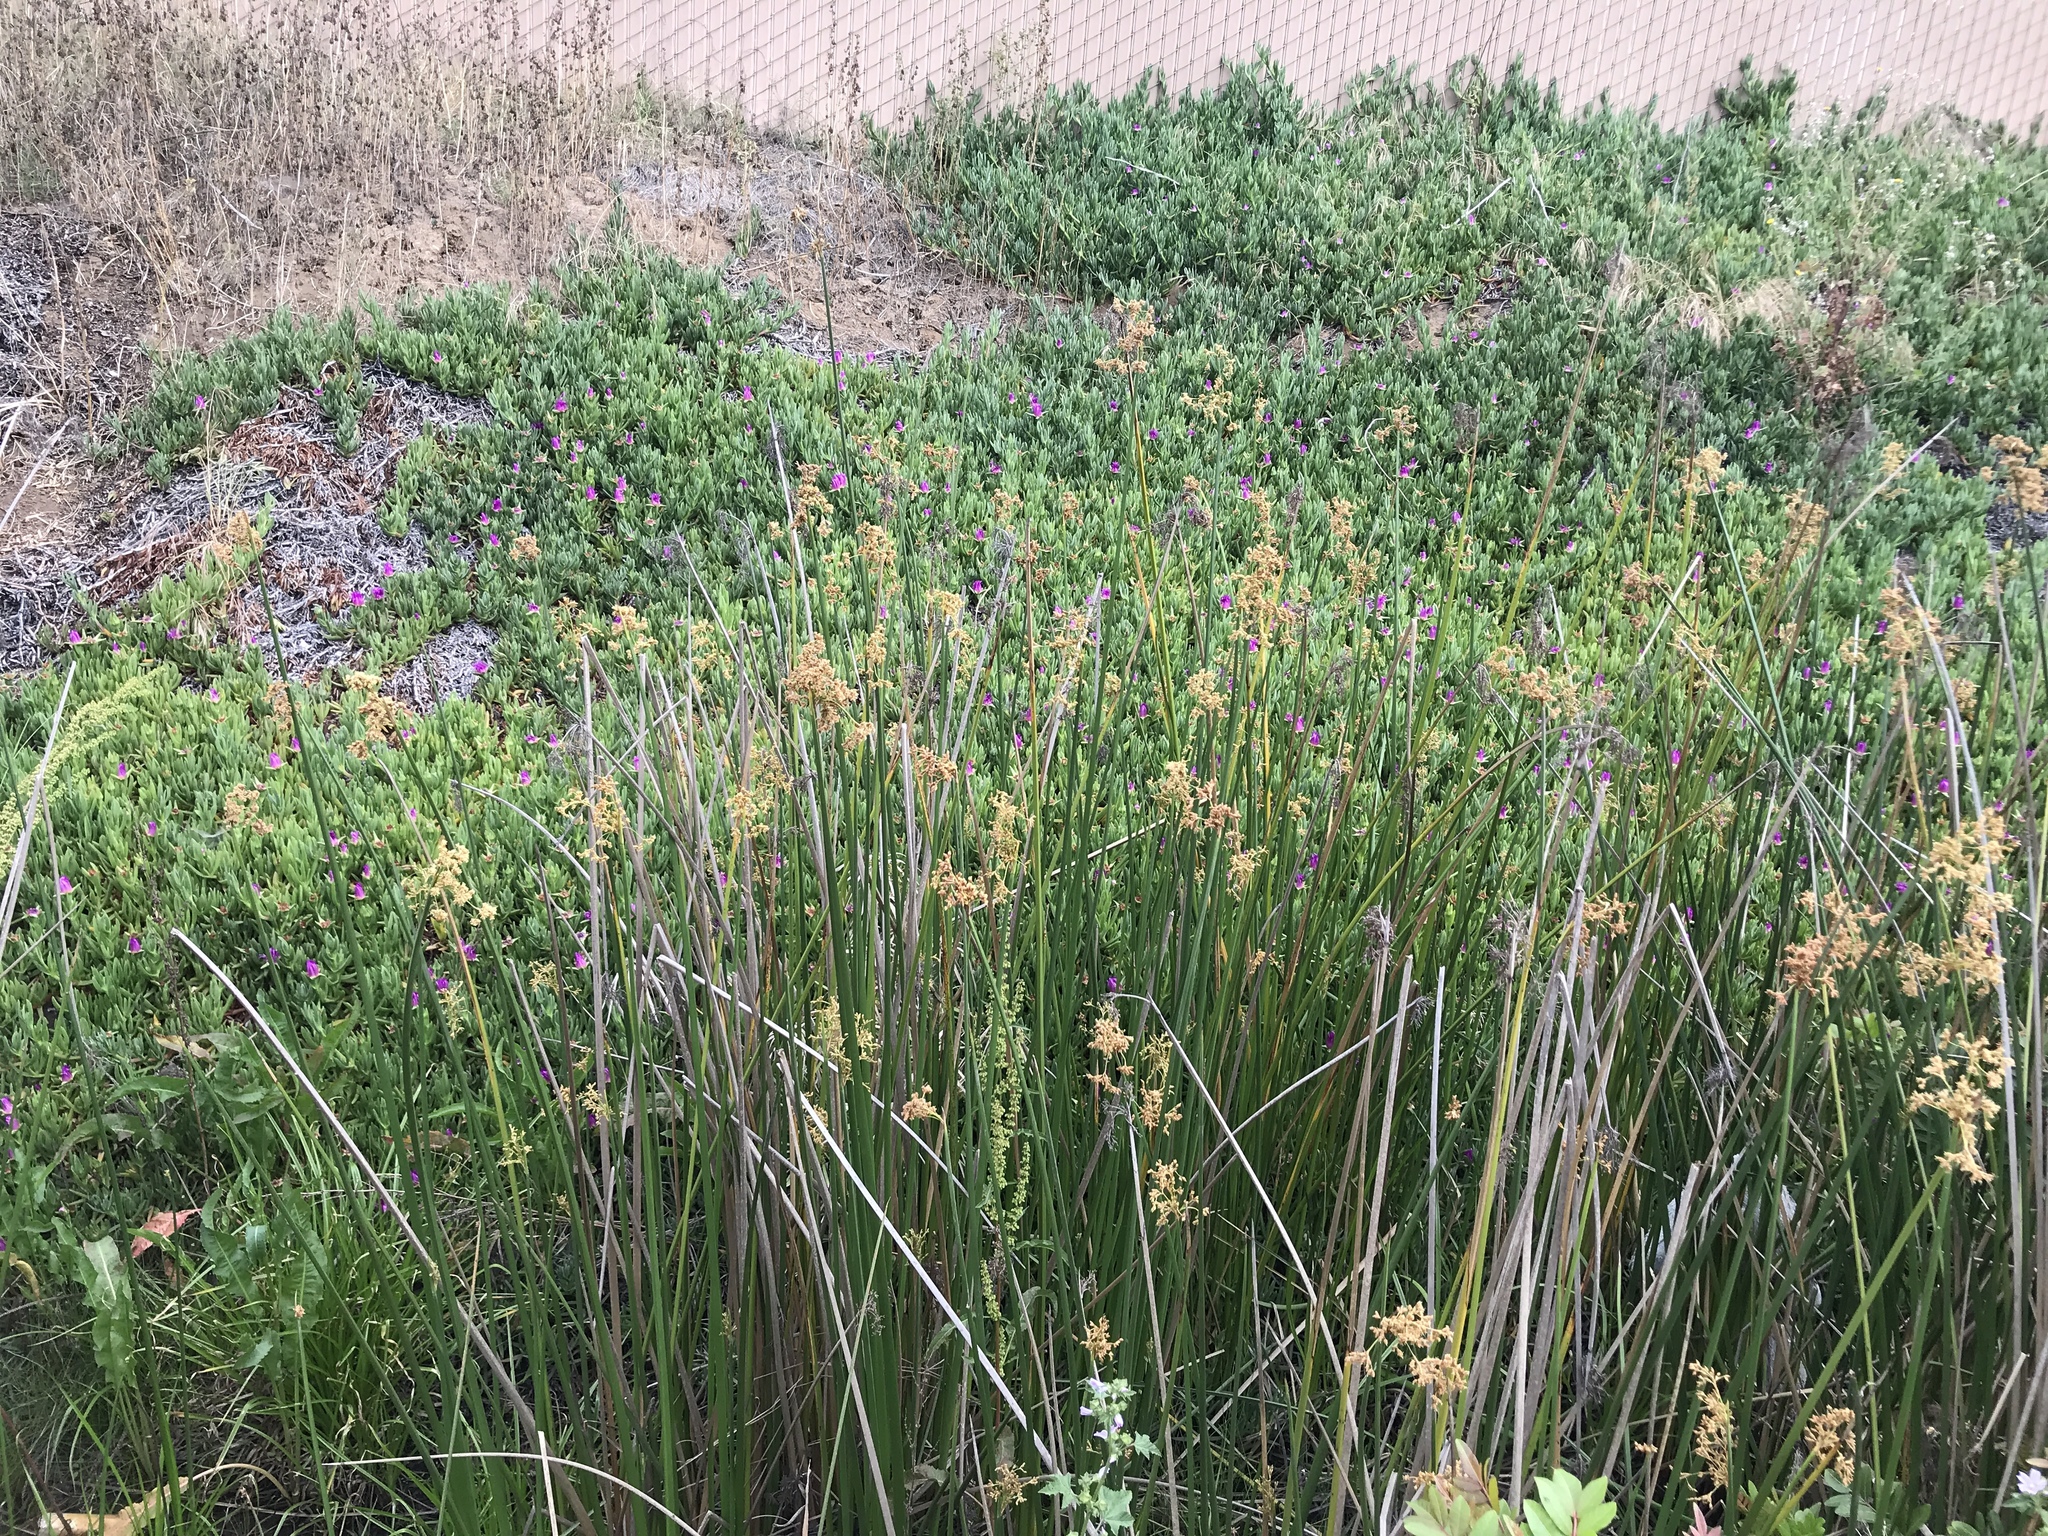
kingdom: Plantae
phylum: Tracheophyta
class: Liliopsida
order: Poales
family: Cyperaceae
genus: Schoenoplectus
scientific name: Schoenoplectus californicus
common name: California bulrush
